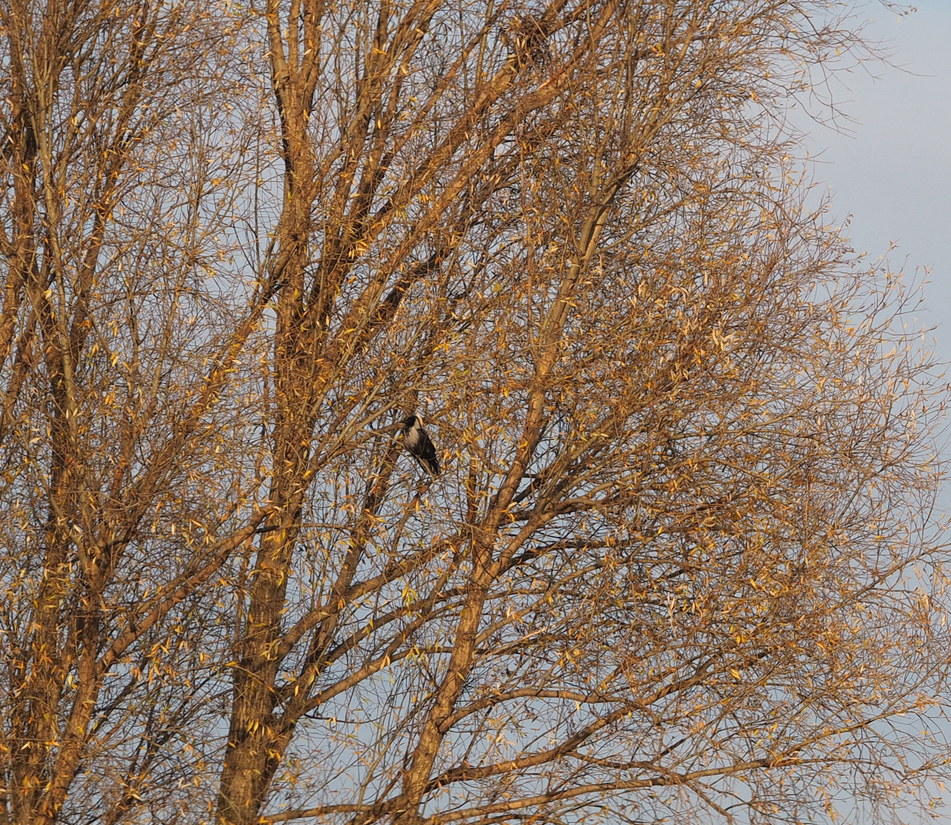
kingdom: Animalia
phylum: Chordata
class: Aves
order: Passeriformes
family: Corvidae
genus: Corvus
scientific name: Corvus
